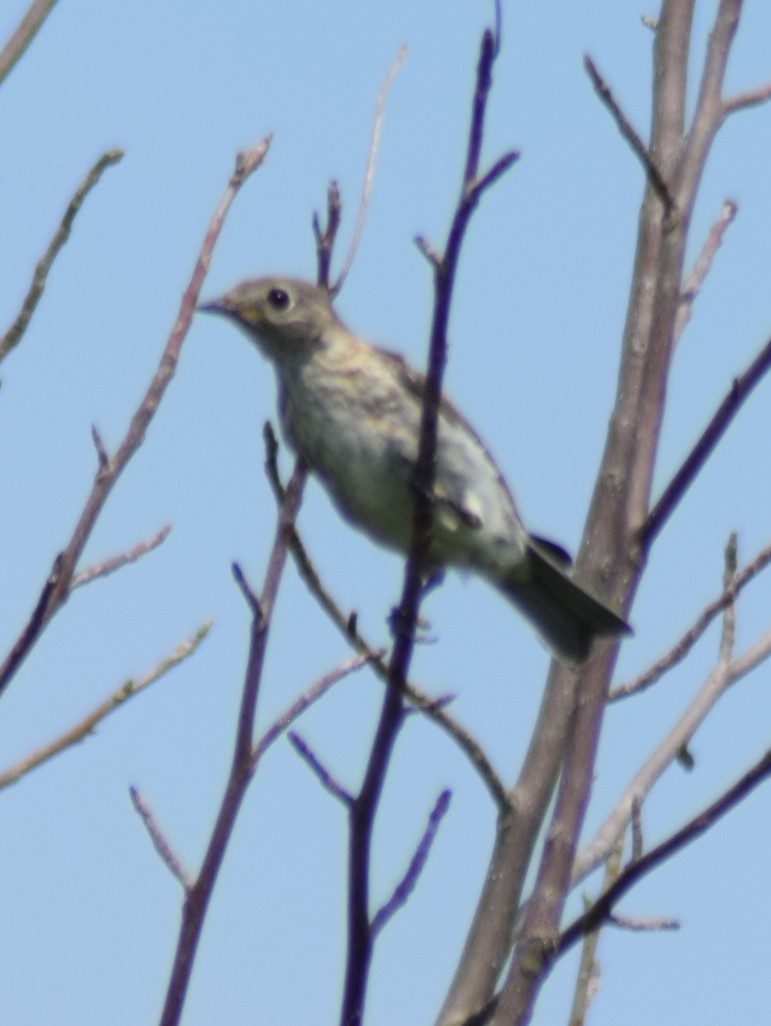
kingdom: Animalia
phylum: Chordata
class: Aves
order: Passeriformes
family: Turdidae
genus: Sialia
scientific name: Sialia sialis
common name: Eastern bluebird
